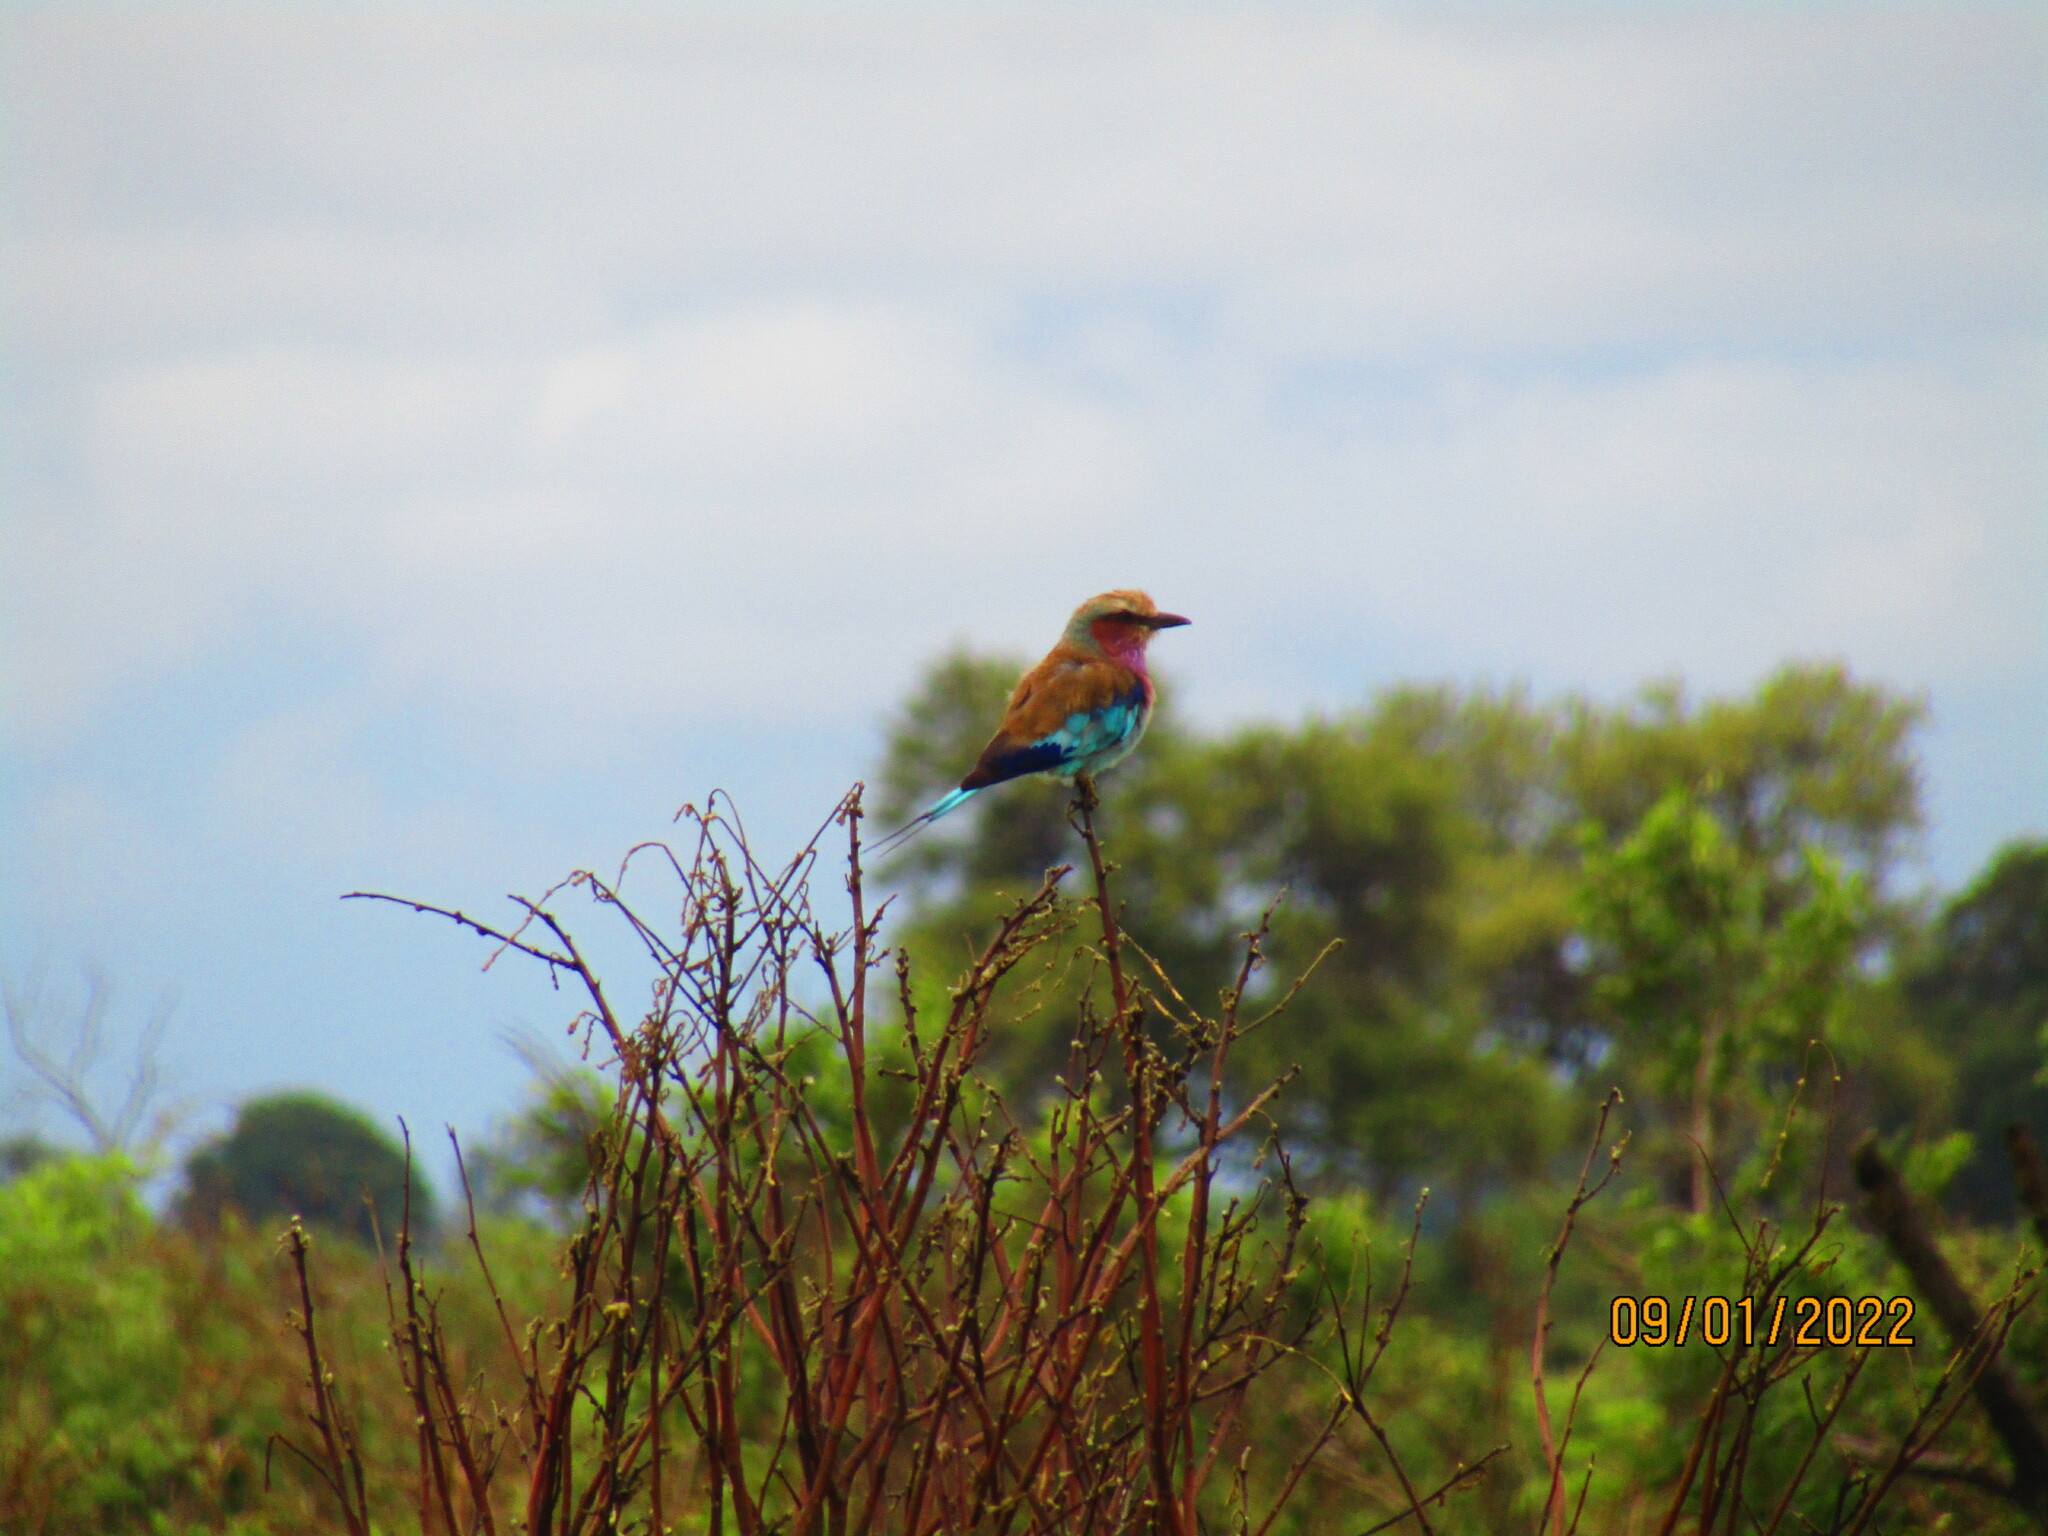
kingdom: Animalia
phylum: Chordata
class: Aves
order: Coraciiformes
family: Coraciidae
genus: Coracias
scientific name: Coracias caudatus
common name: Lilac-breasted roller
